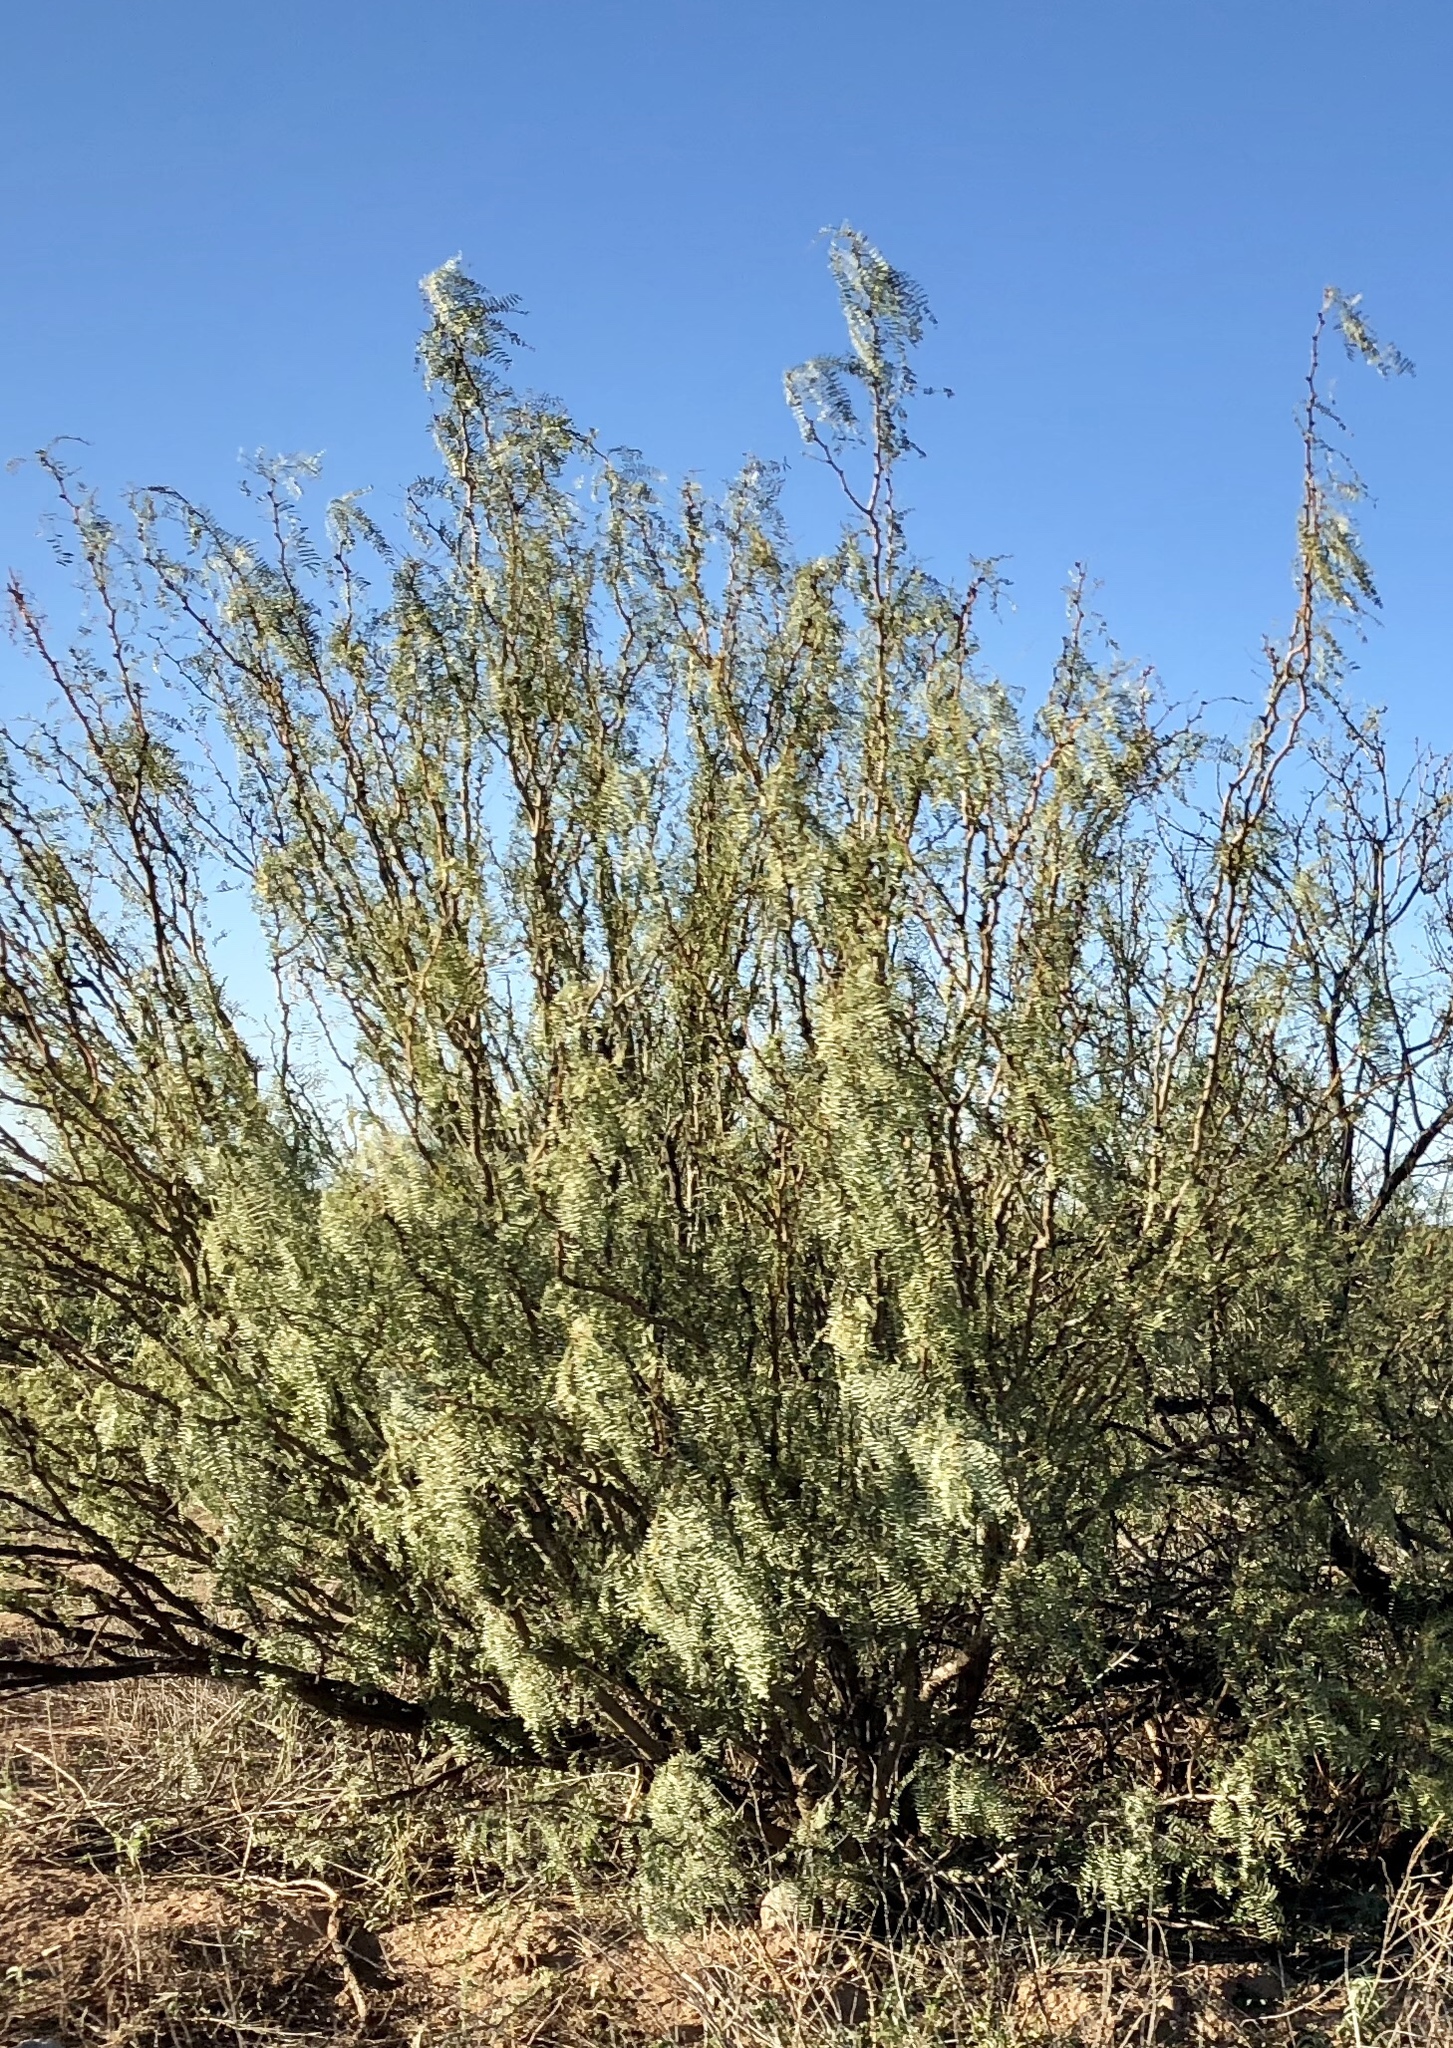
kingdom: Plantae
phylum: Tracheophyta
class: Magnoliopsida
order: Fabales
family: Fabaceae
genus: Prosopis
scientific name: Prosopis glandulosa
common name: Honey mesquite
